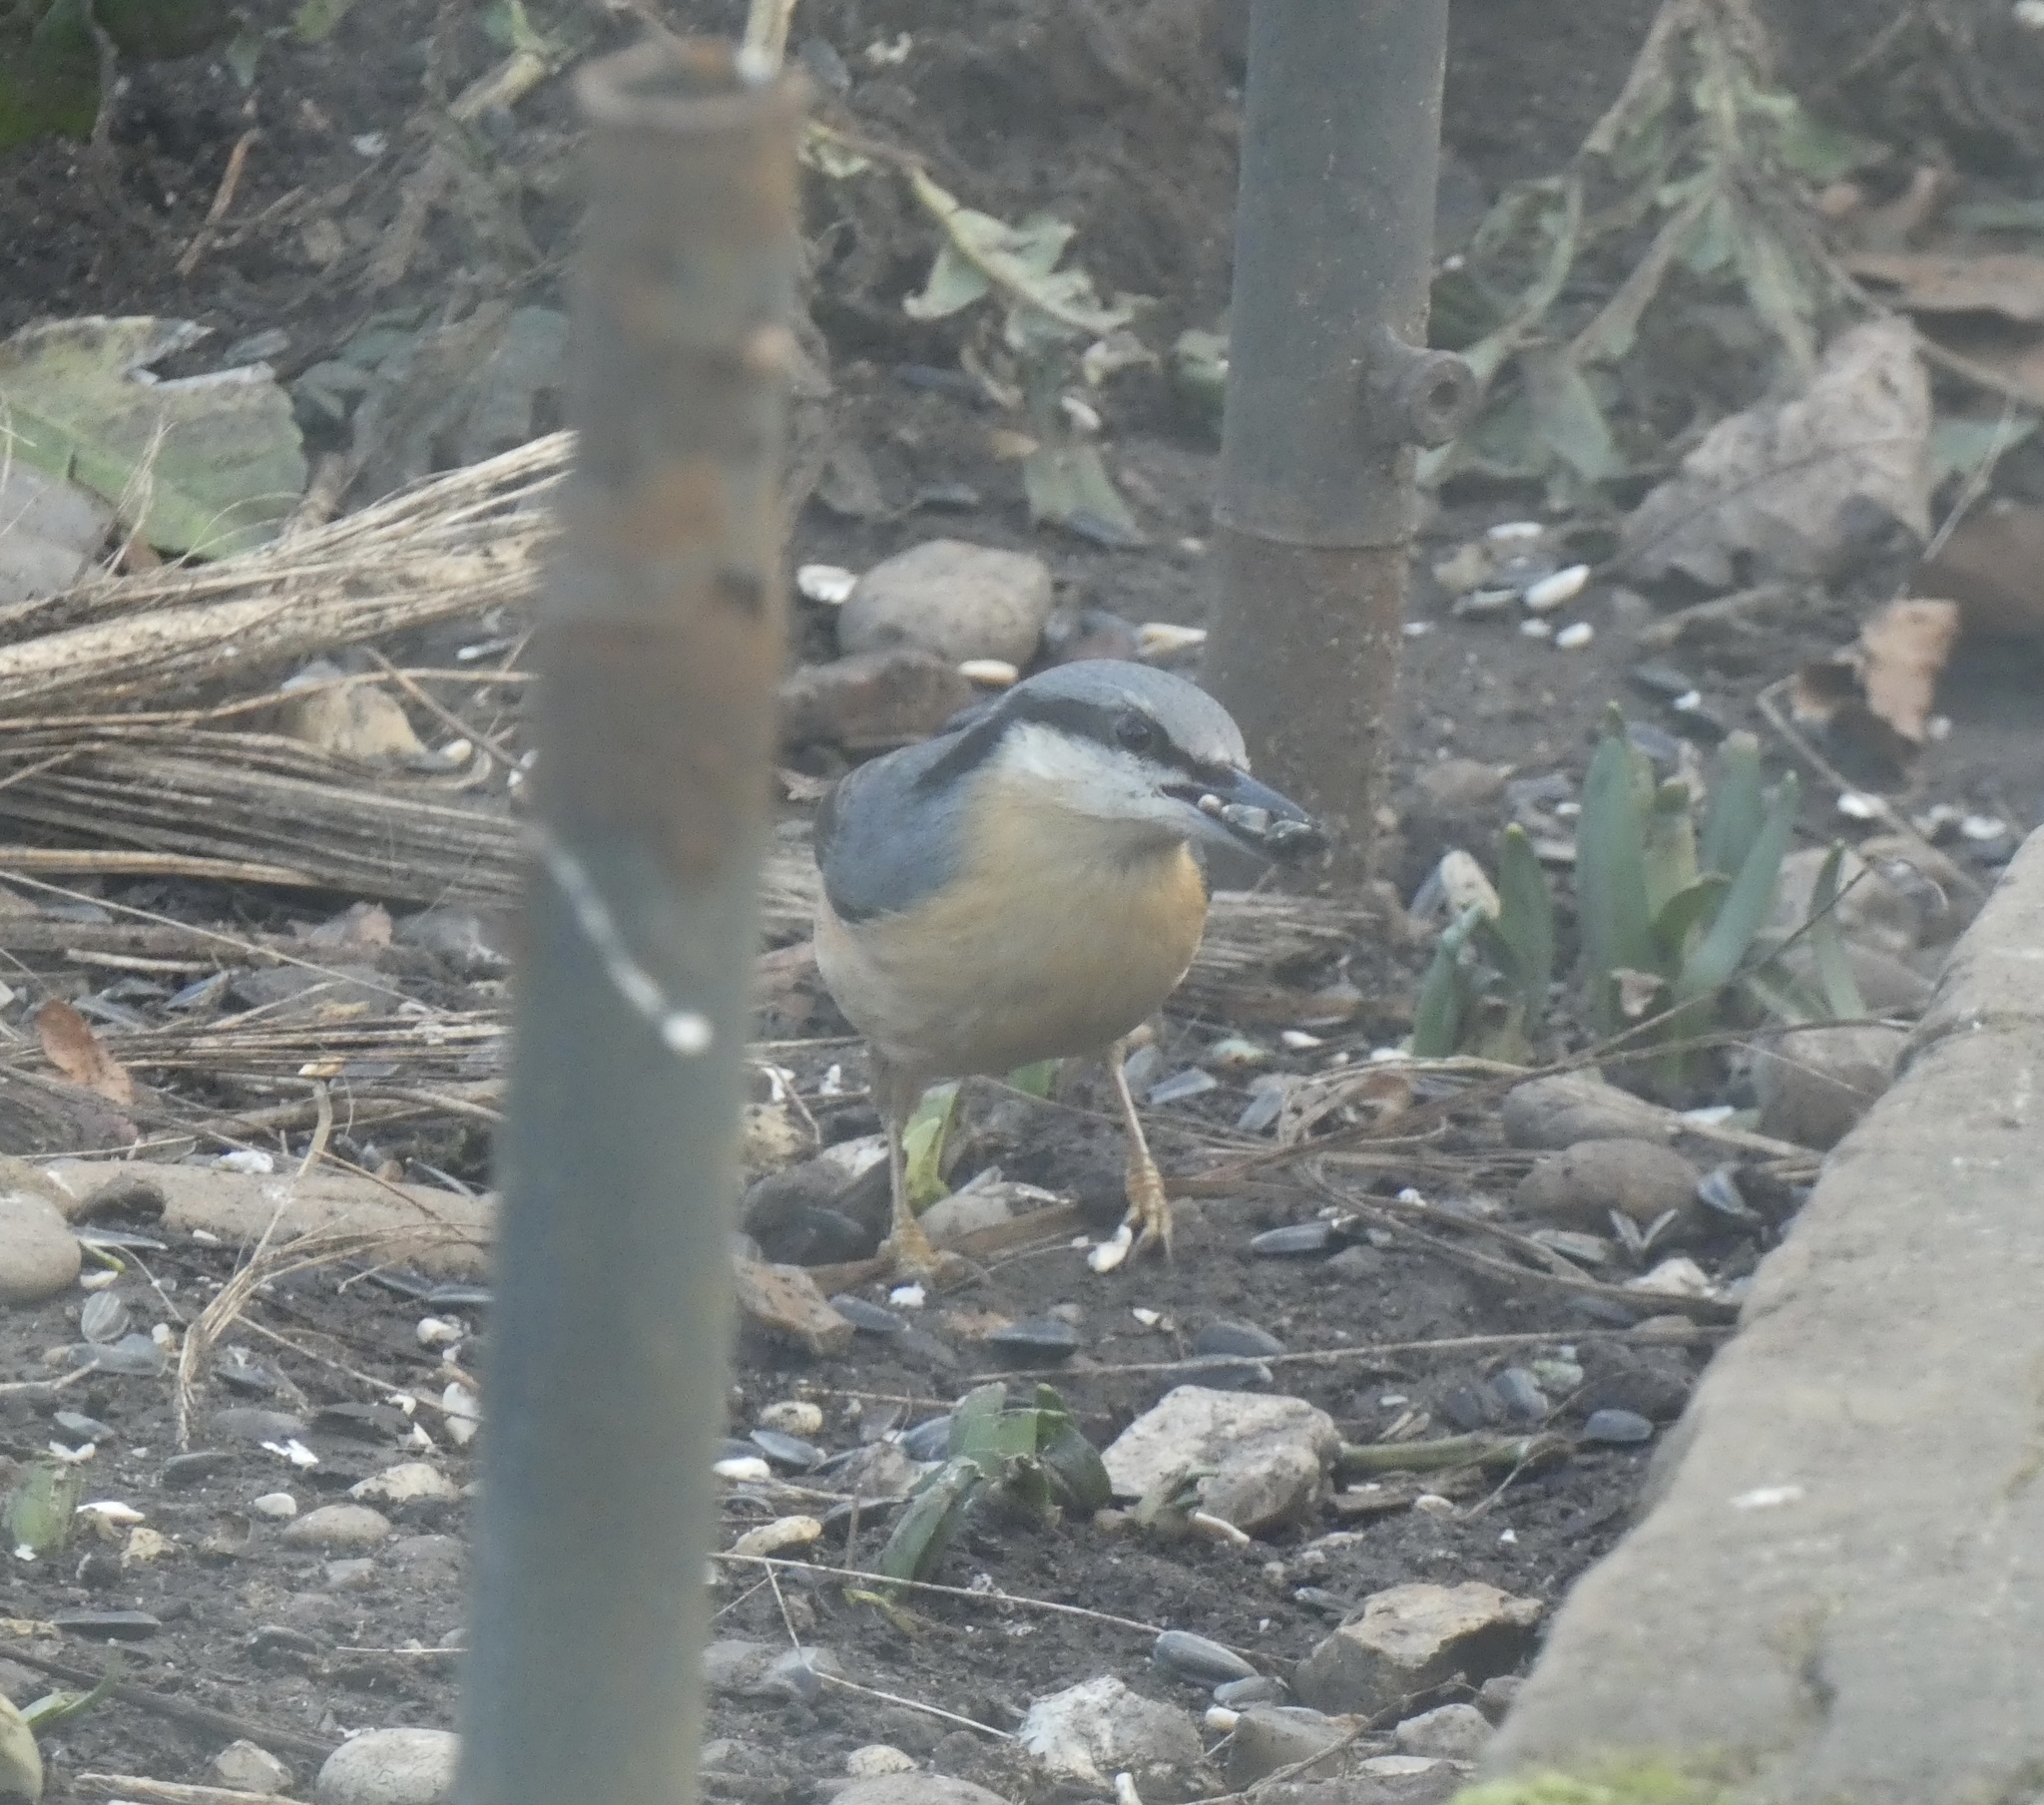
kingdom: Animalia
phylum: Chordata
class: Aves
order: Passeriformes
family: Sittidae
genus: Sitta
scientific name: Sitta europaea
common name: Eurasian nuthatch
